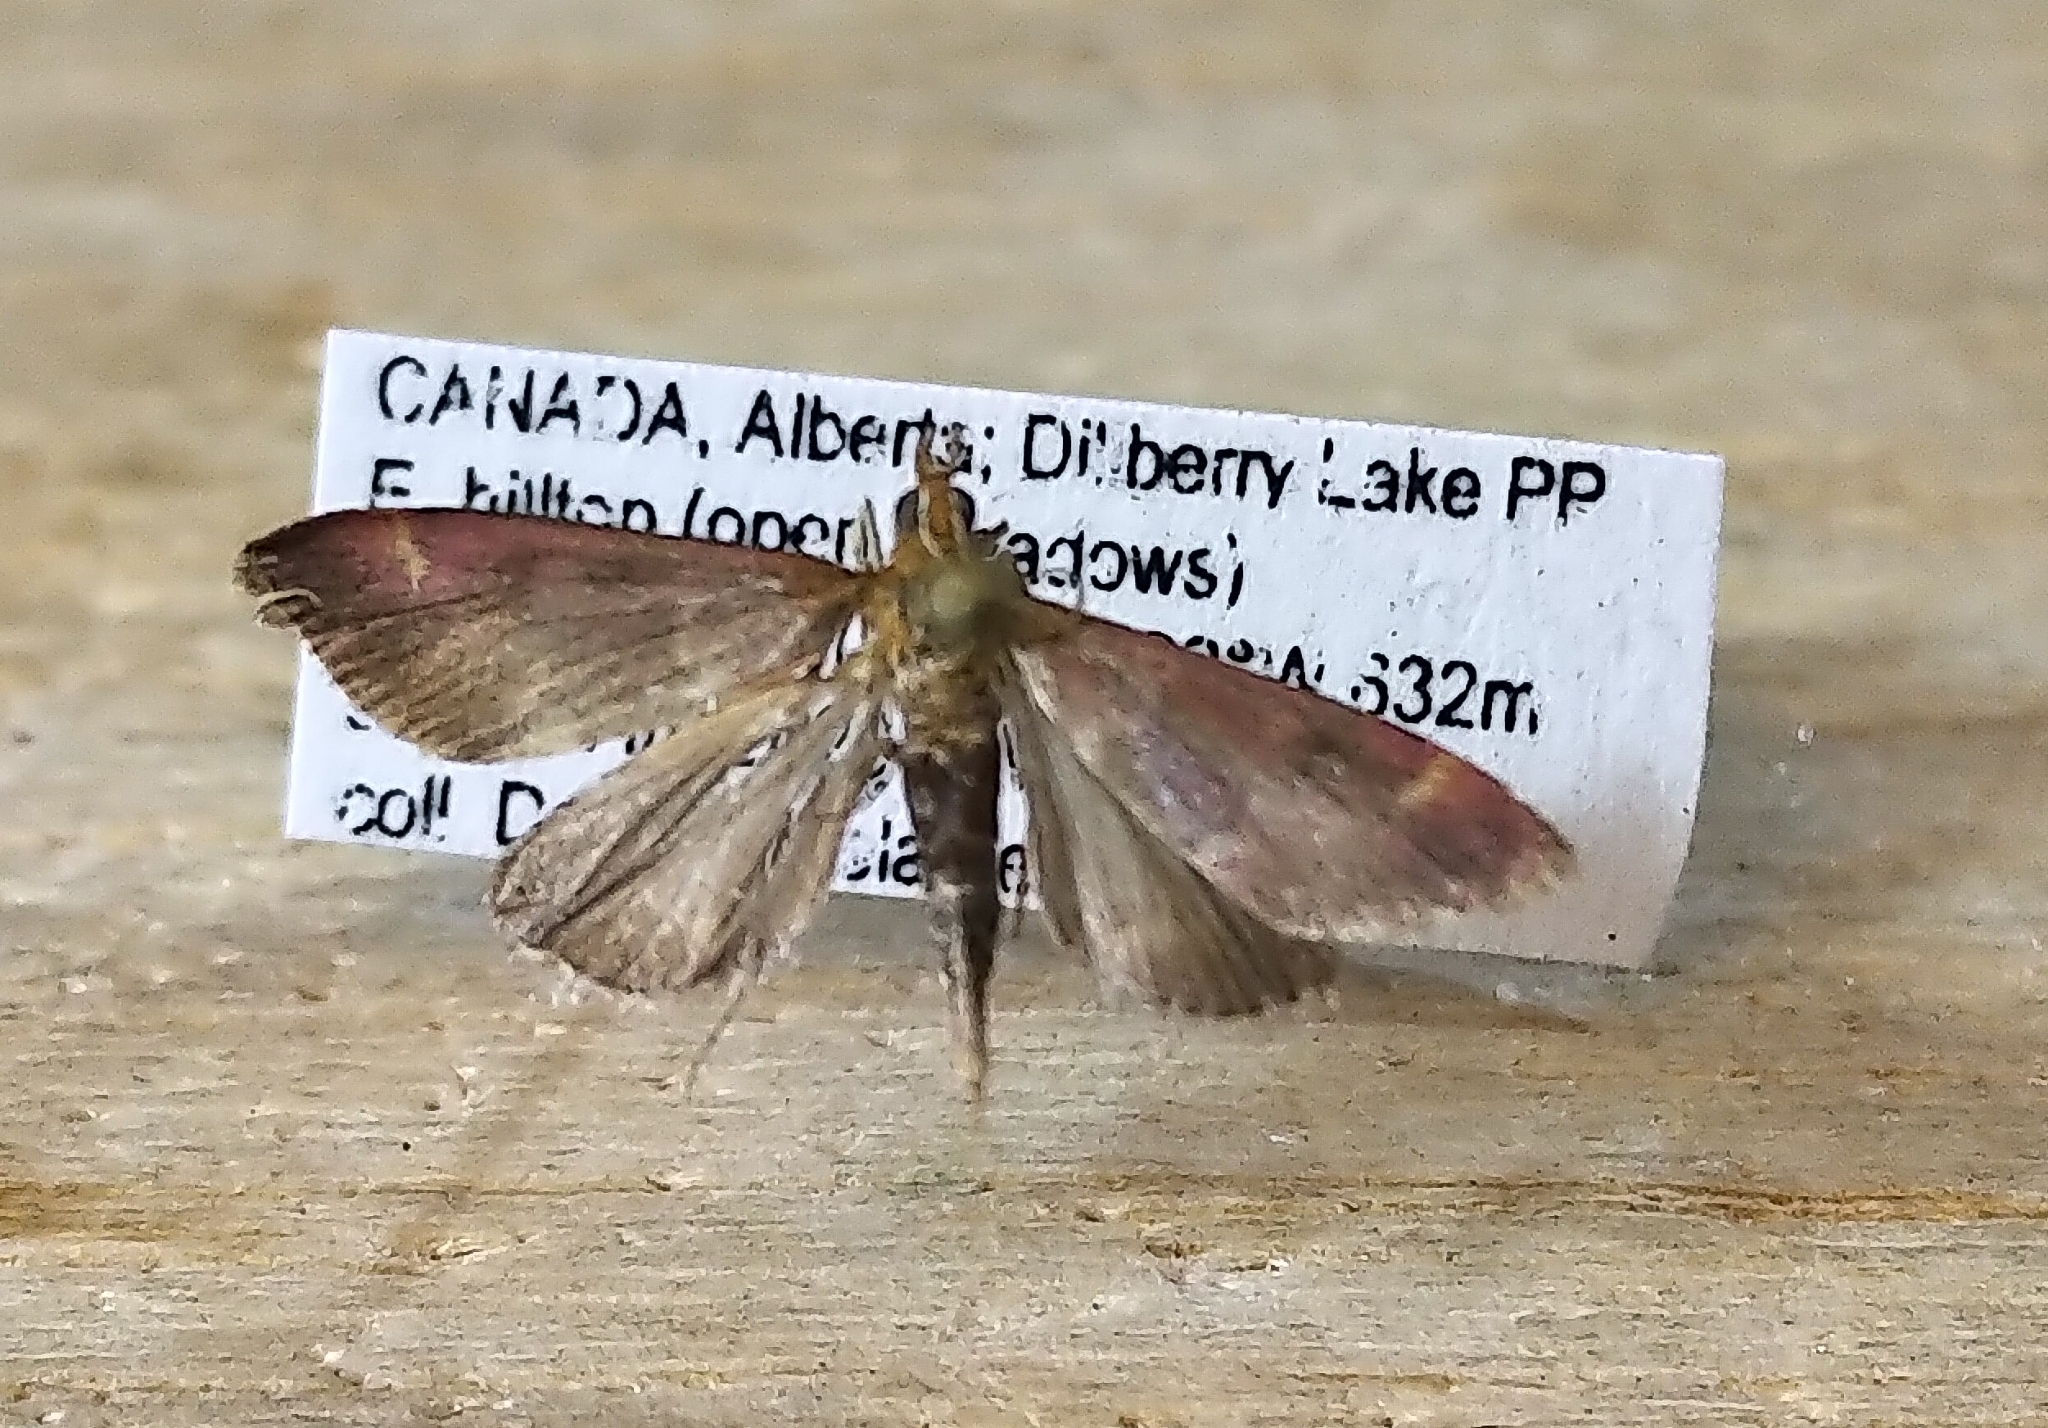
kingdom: Animalia
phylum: Arthropoda
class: Insecta
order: Lepidoptera
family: Crambidae
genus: Pyrausta
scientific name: Pyrausta signatalis
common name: Raspberry pyrausta moth
